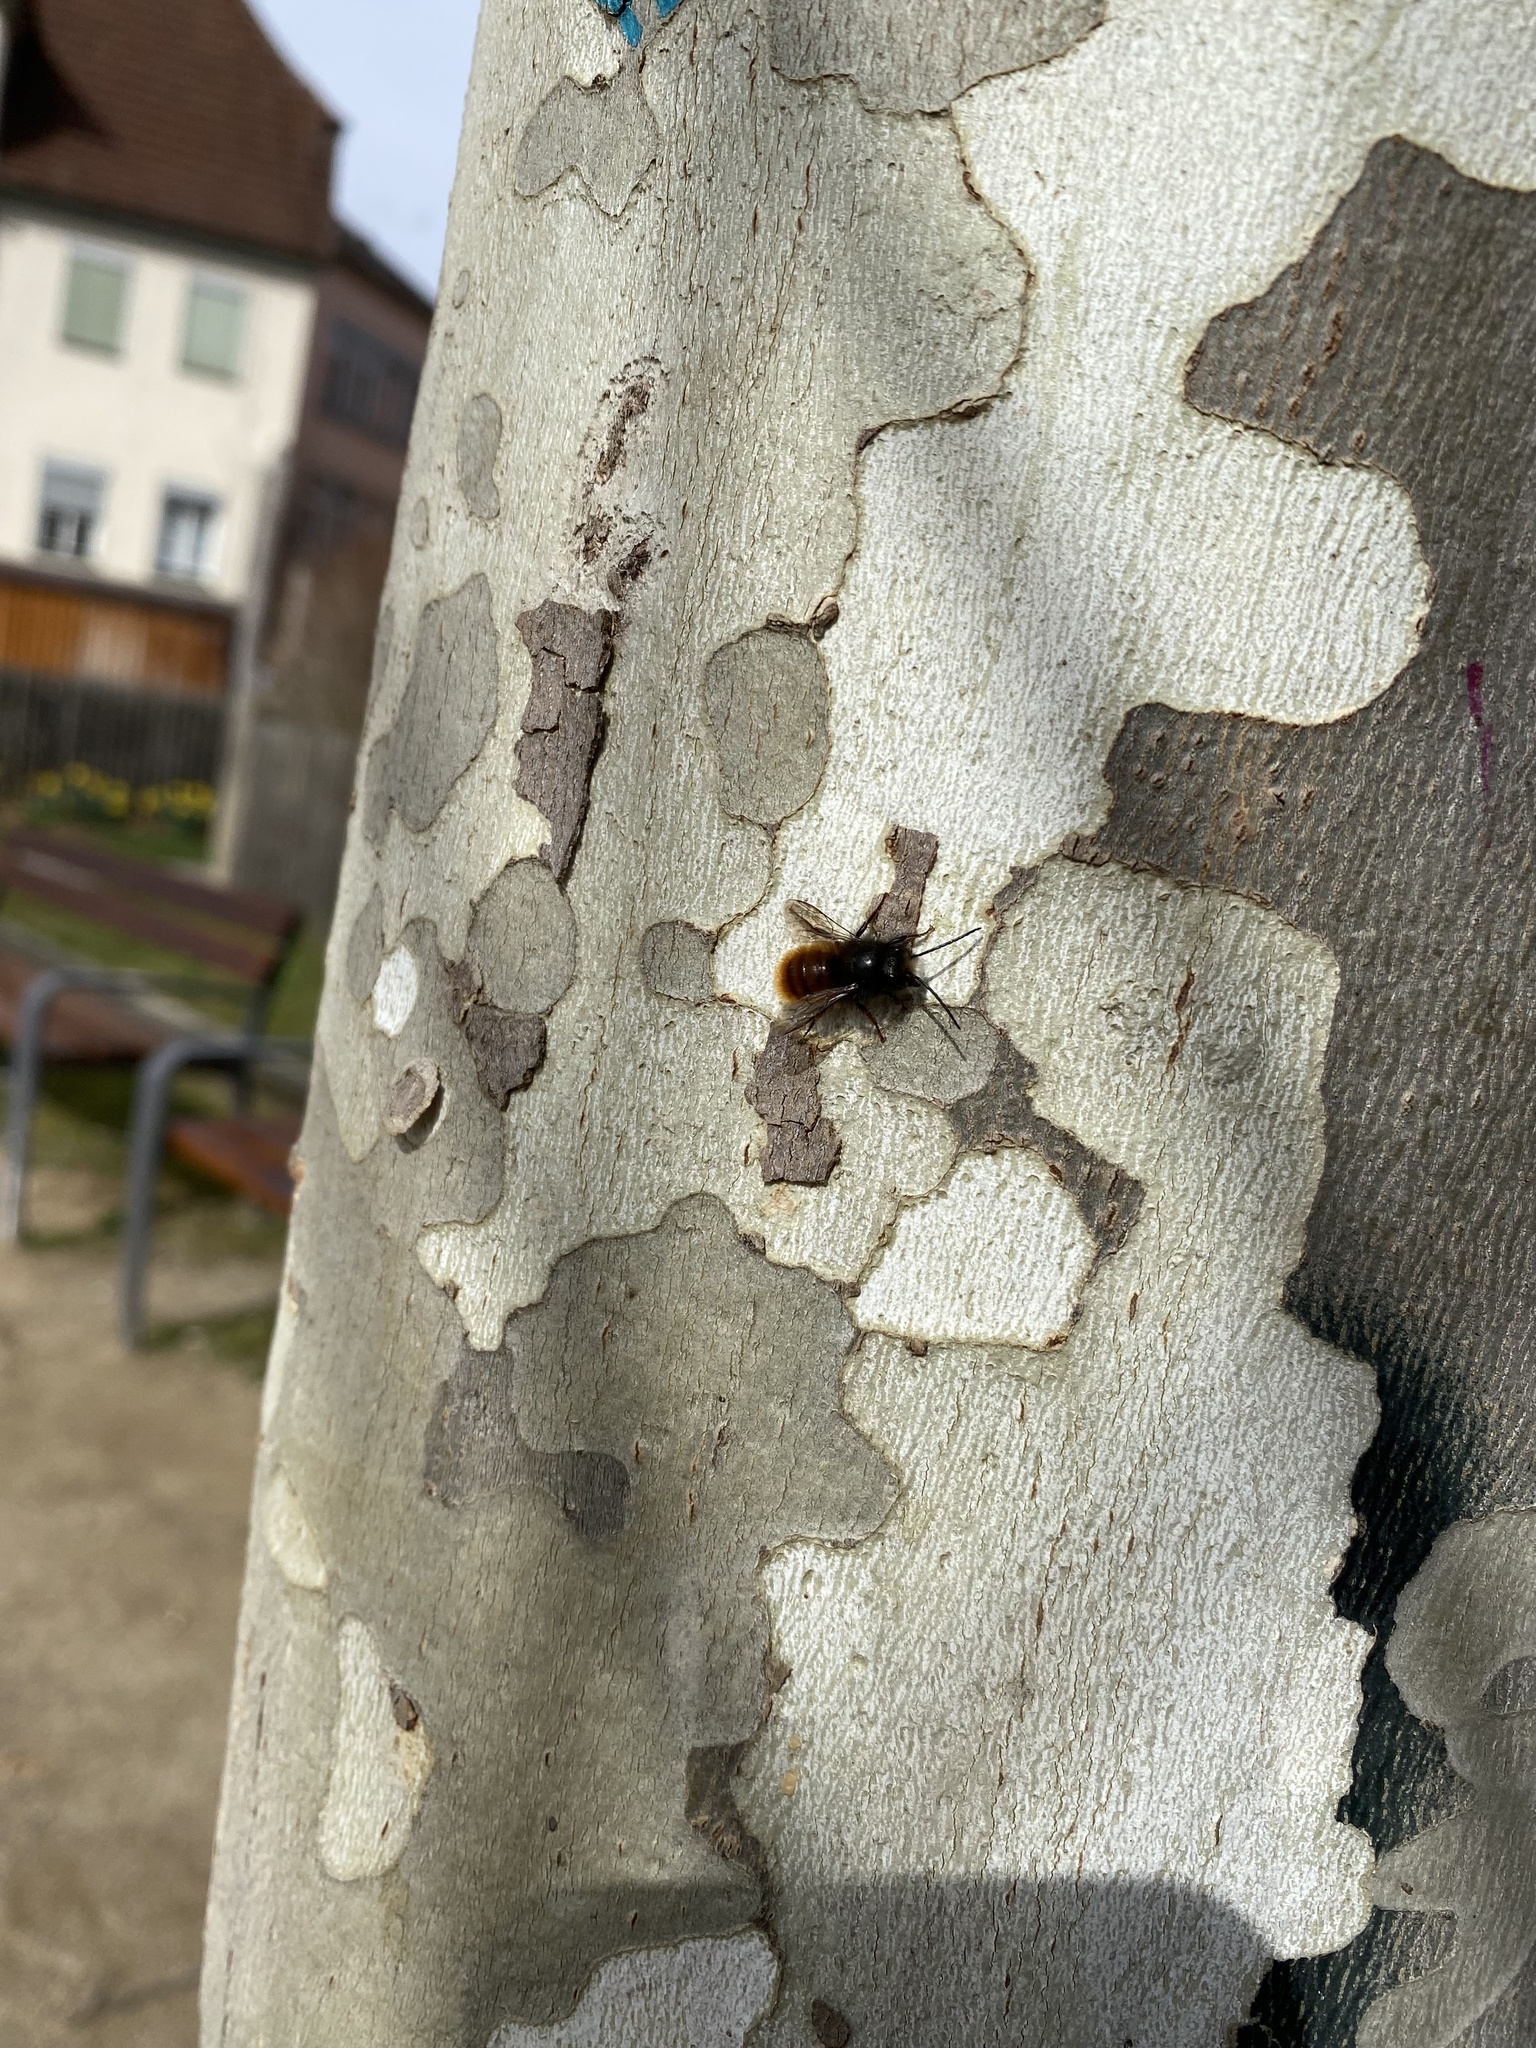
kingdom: Animalia
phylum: Arthropoda
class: Insecta
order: Hymenoptera
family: Megachilidae
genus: Osmia
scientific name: Osmia cornuta
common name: Mason bee
